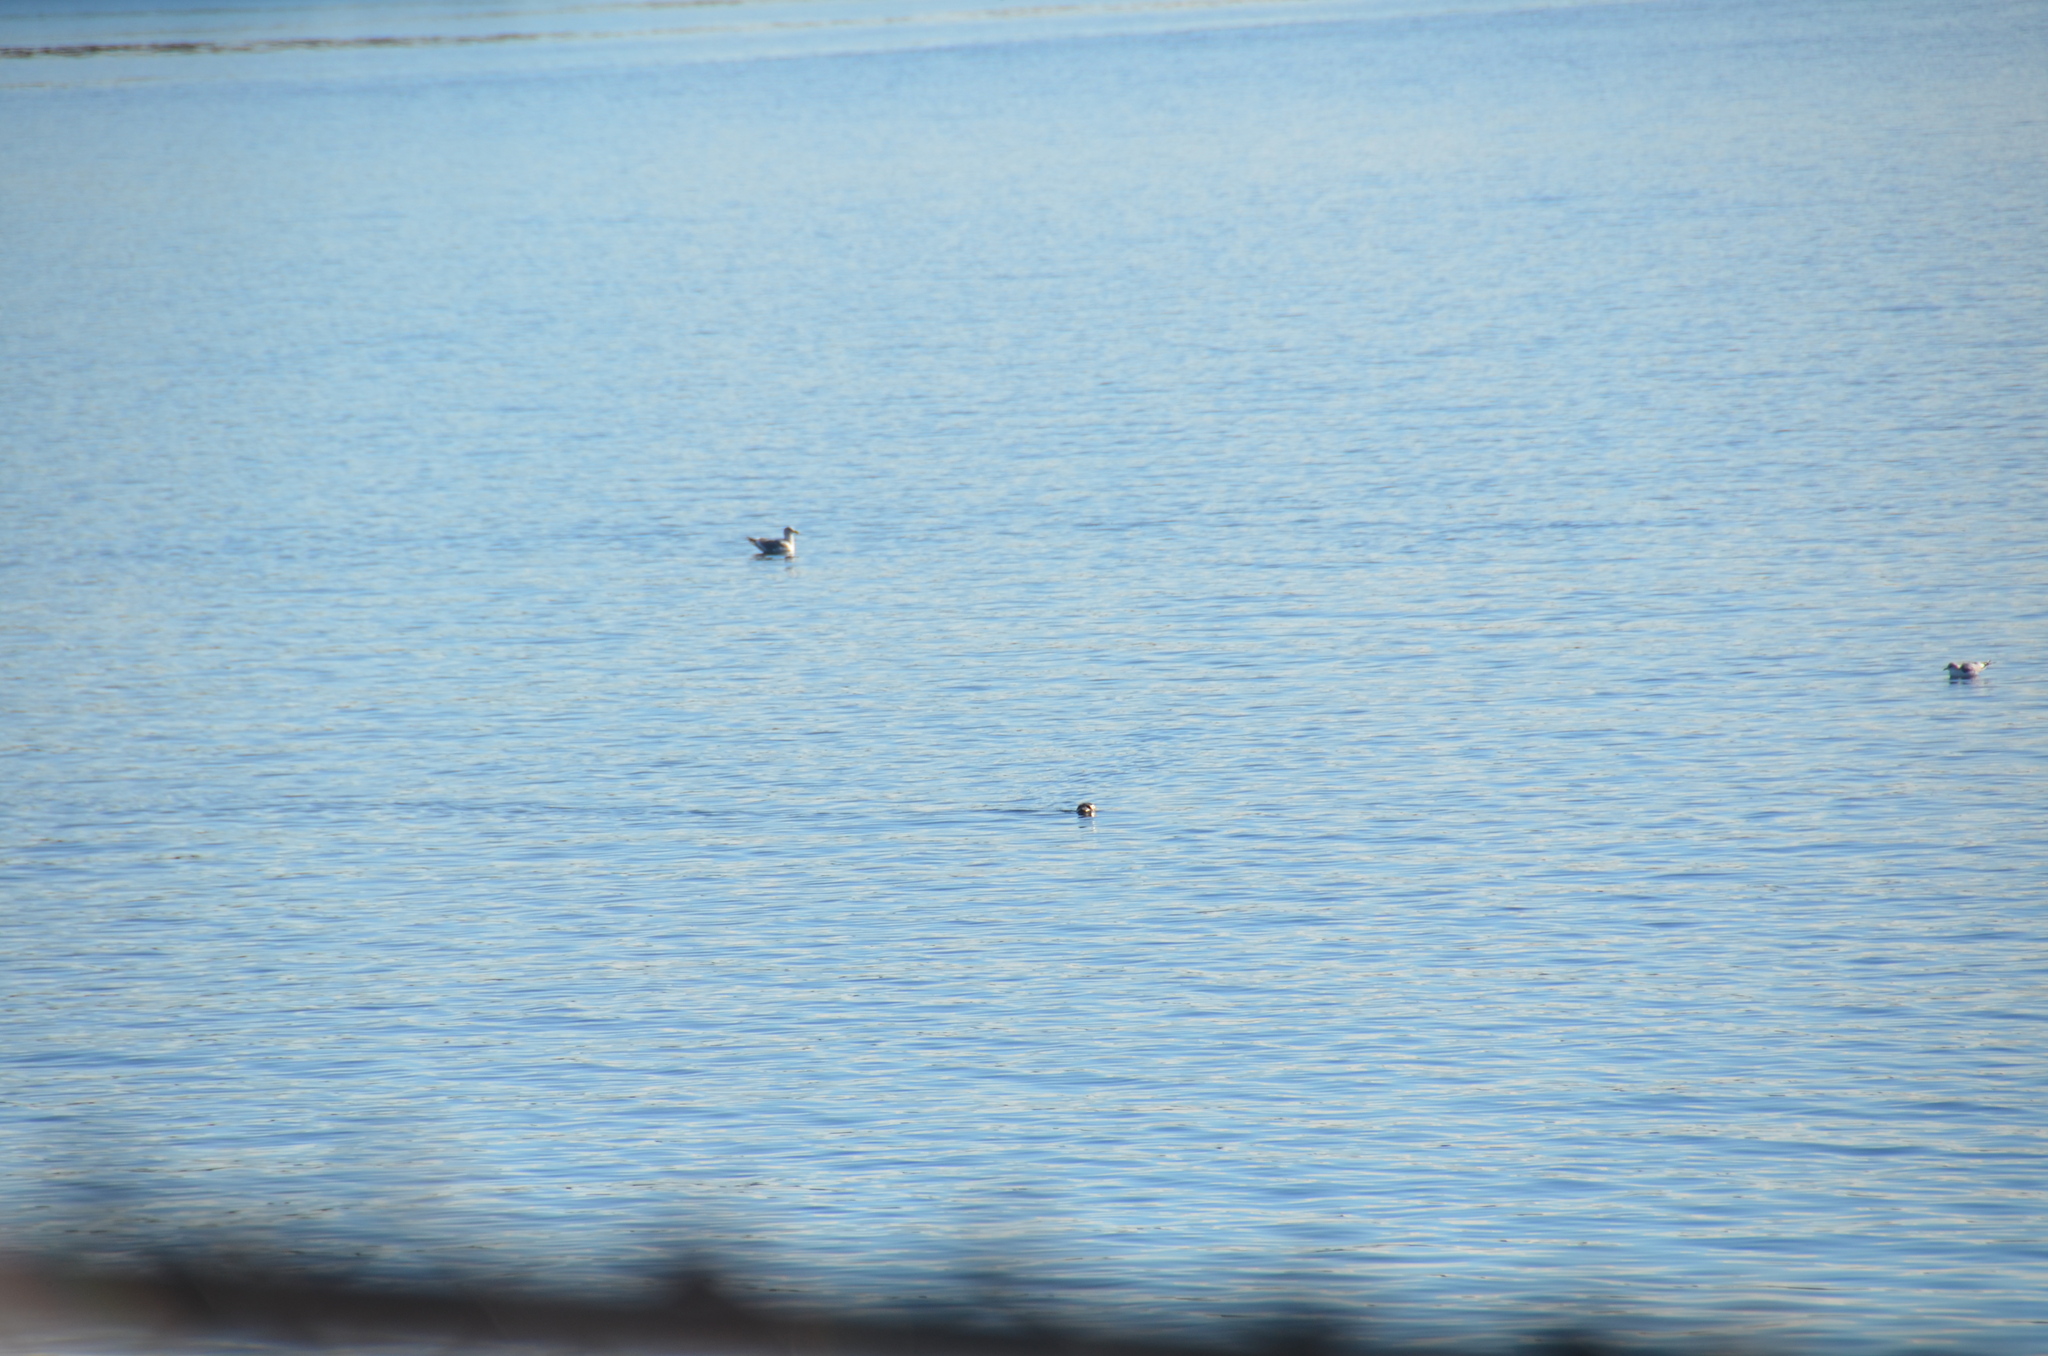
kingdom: Animalia
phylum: Chordata
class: Mammalia
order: Carnivora
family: Phocidae
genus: Phoca
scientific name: Phoca vitulina
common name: Harbor seal
